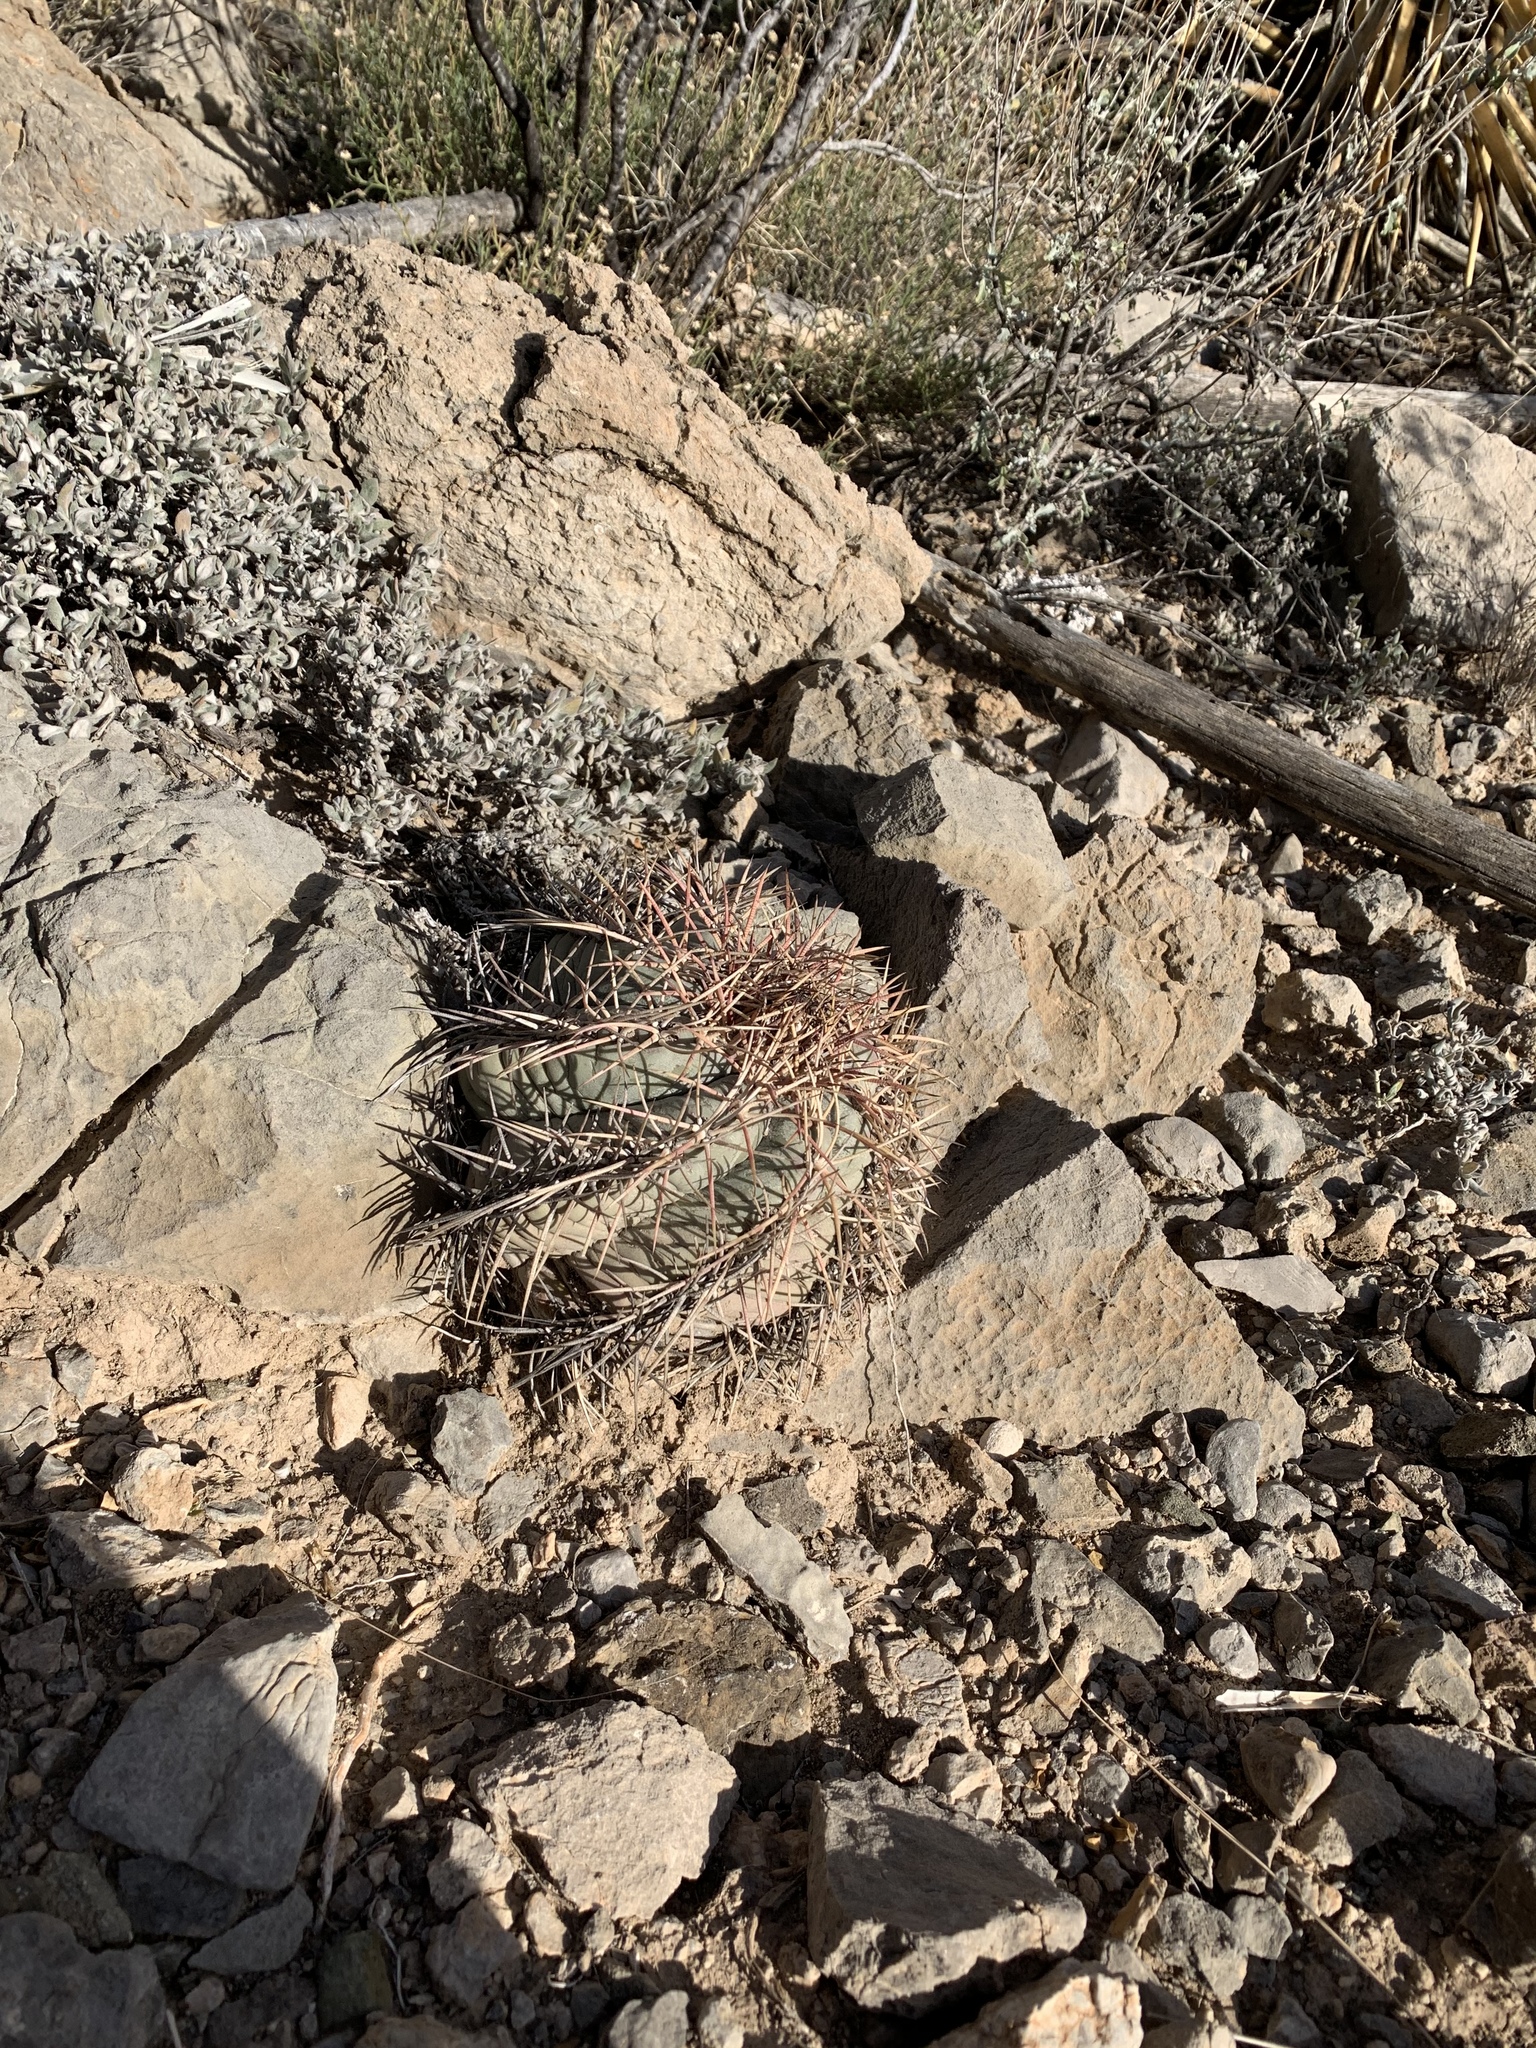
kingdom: Plantae
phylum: Tracheophyta
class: Magnoliopsida
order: Caryophyllales
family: Cactaceae
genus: Echinocactus
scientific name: Echinocactus horizonthalonius
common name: Devilshead
